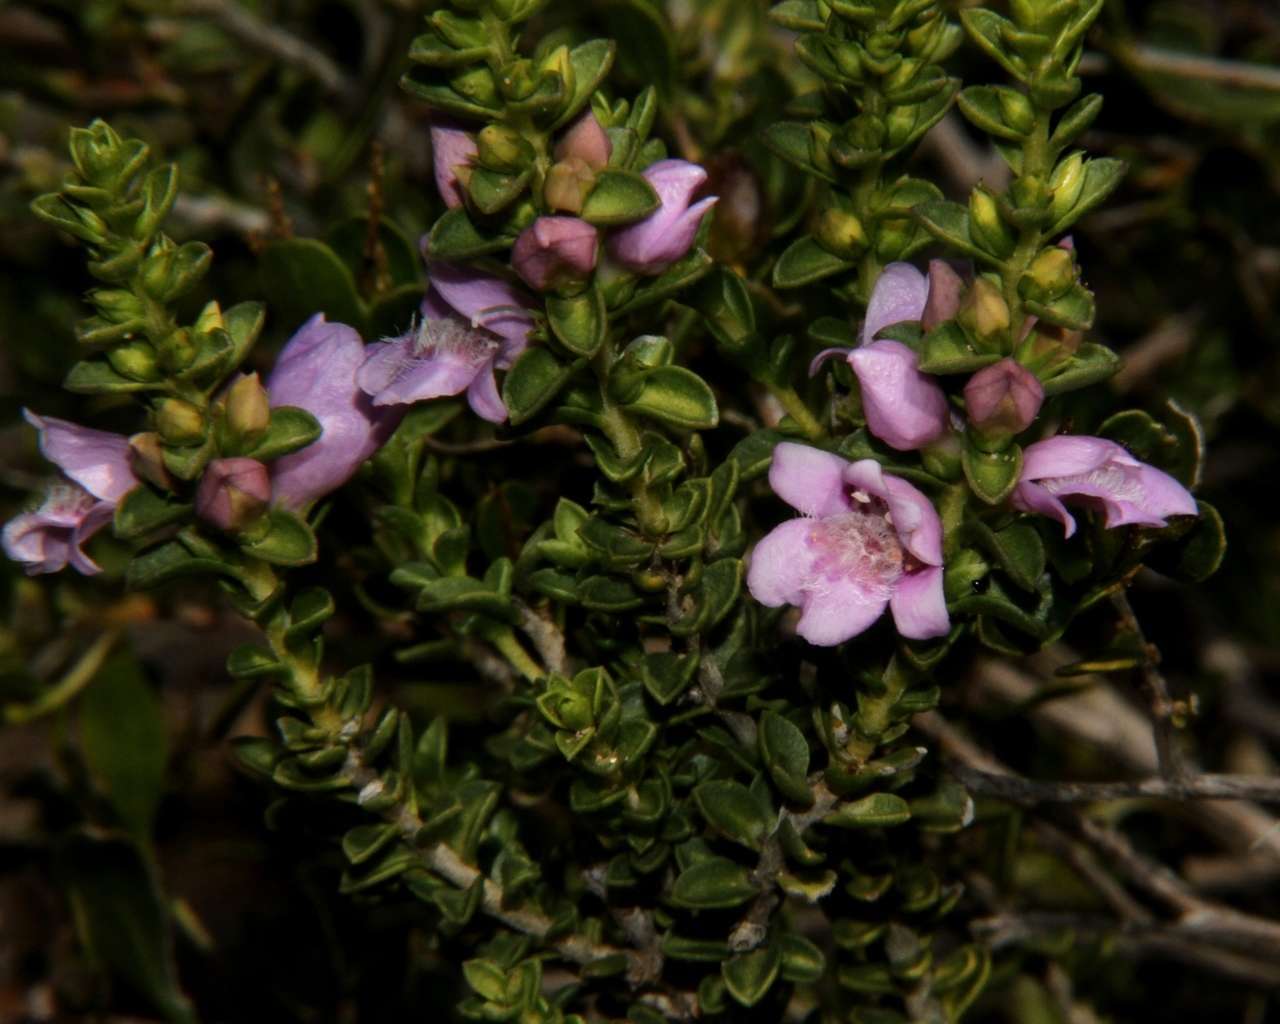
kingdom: Plantae
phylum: Tracheophyta
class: Magnoliopsida
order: Lamiales
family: Scrophulariaceae
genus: Eremophila
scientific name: Eremophila crassifolia
